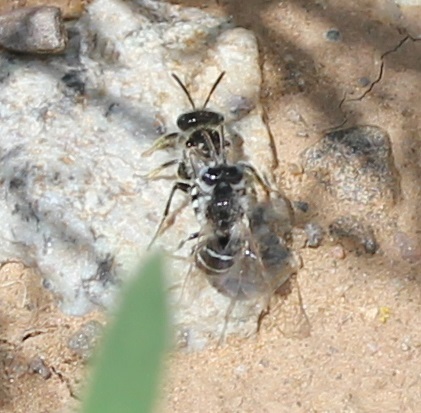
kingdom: Animalia
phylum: Arthropoda
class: Insecta
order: Hymenoptera
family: Andrenidae
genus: Calliopsis
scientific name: Calliopsis
